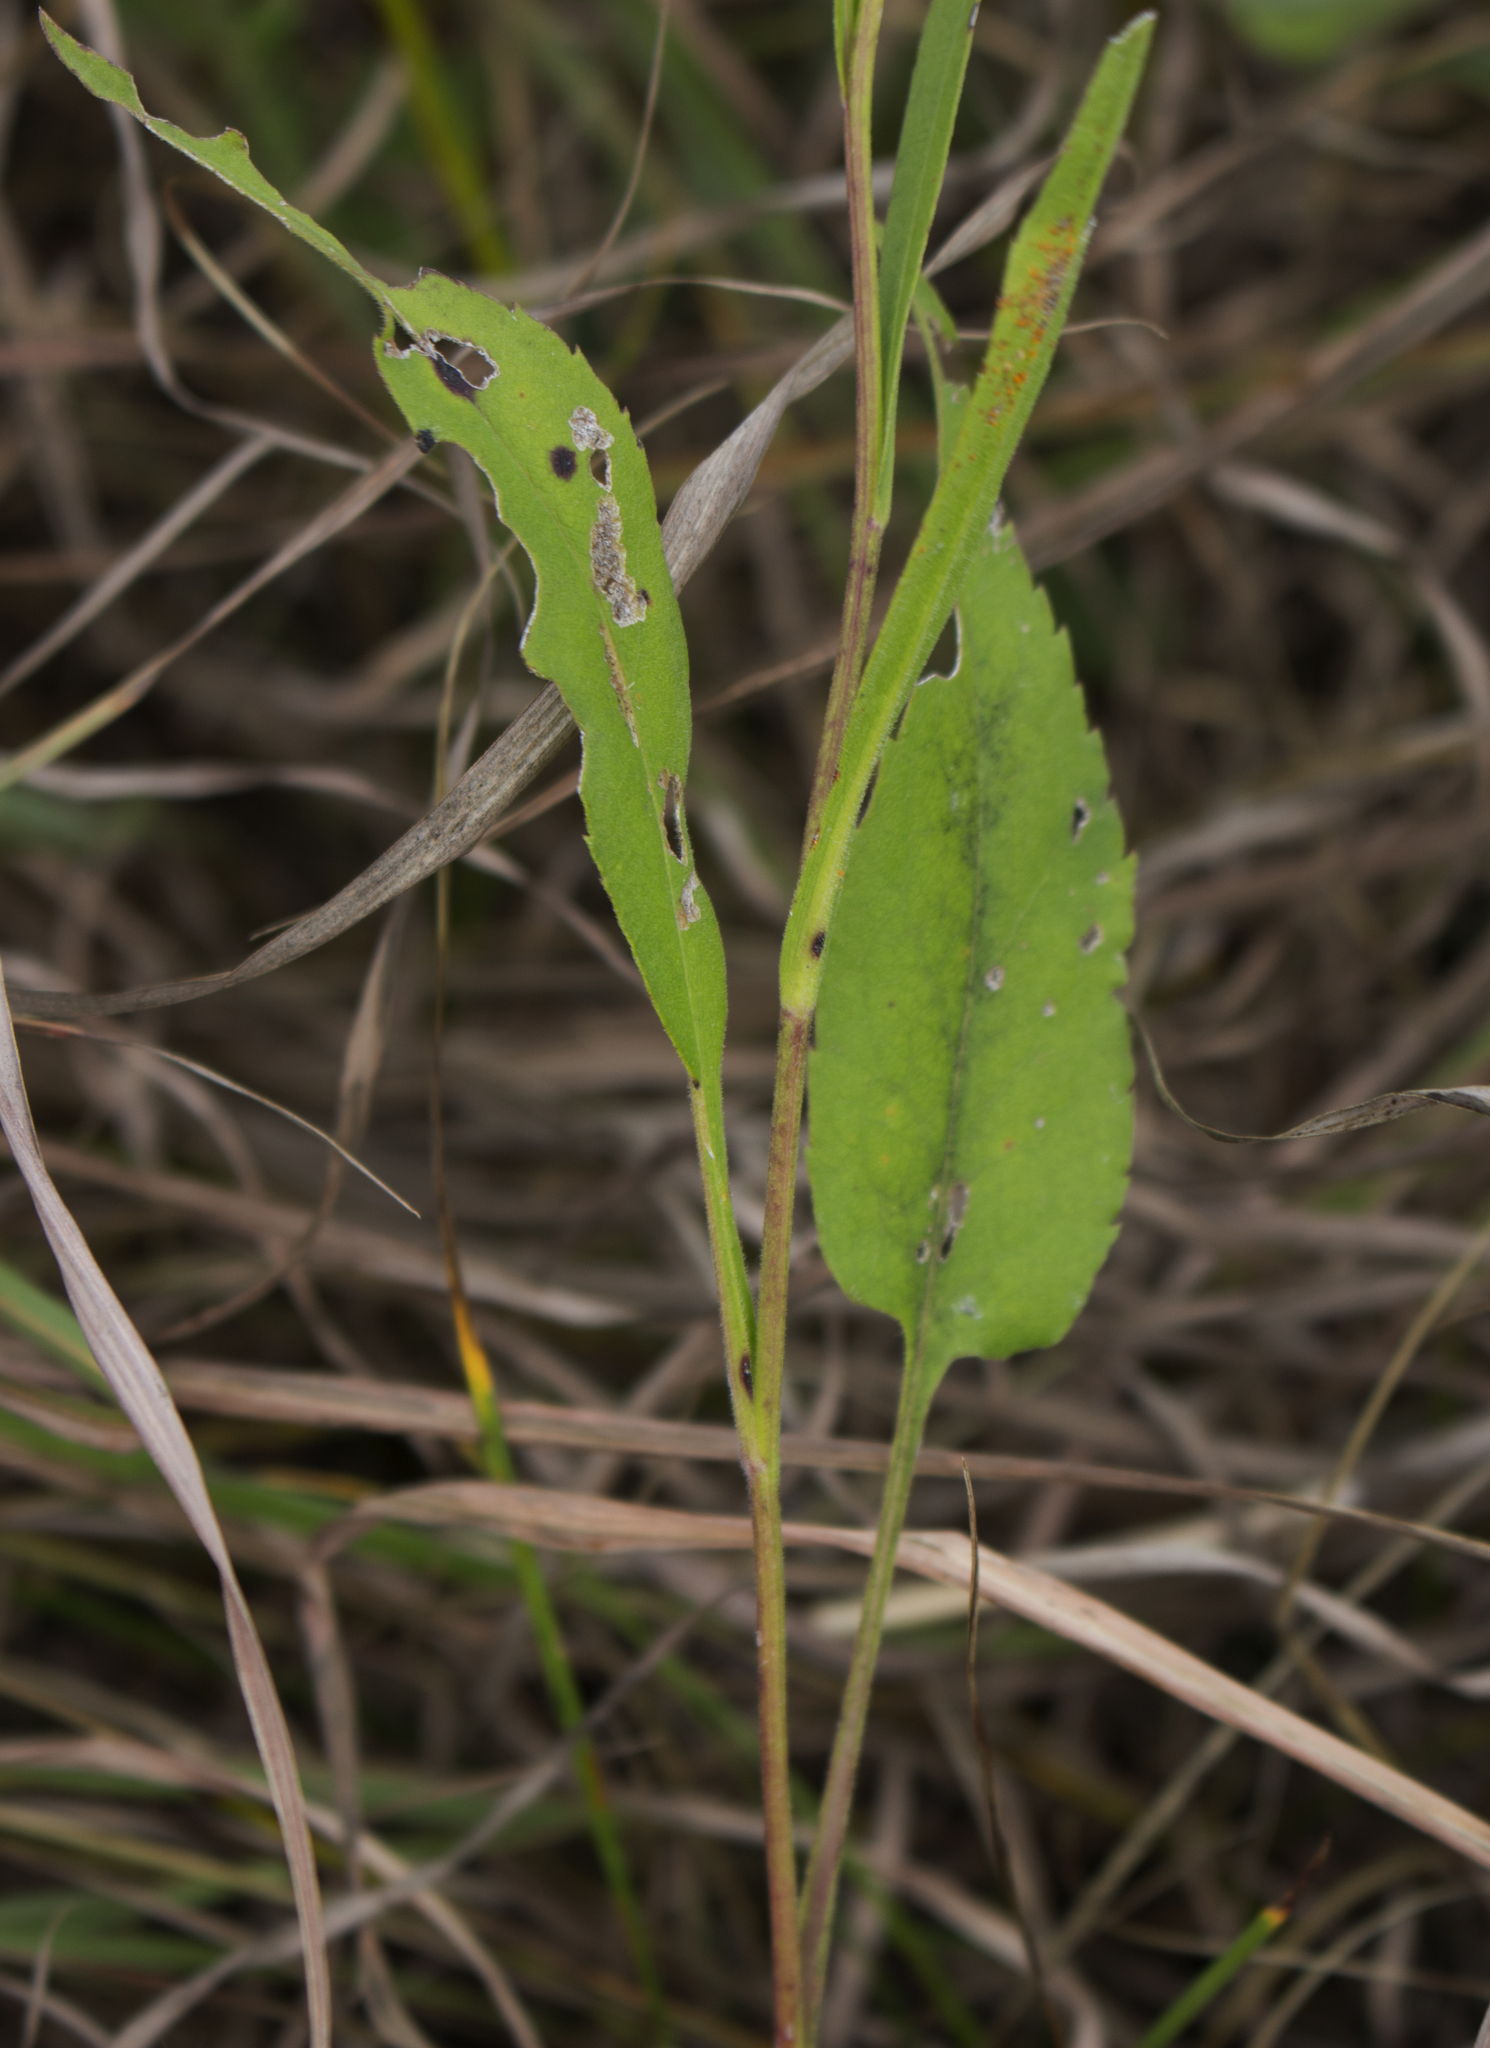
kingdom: Plantae
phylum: Tracheophyta
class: Magnoliopsida
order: Asterales
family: Asteraceae
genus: Symphyotrichum
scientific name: Symphyotrichum oolentangiense
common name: Azure aster
